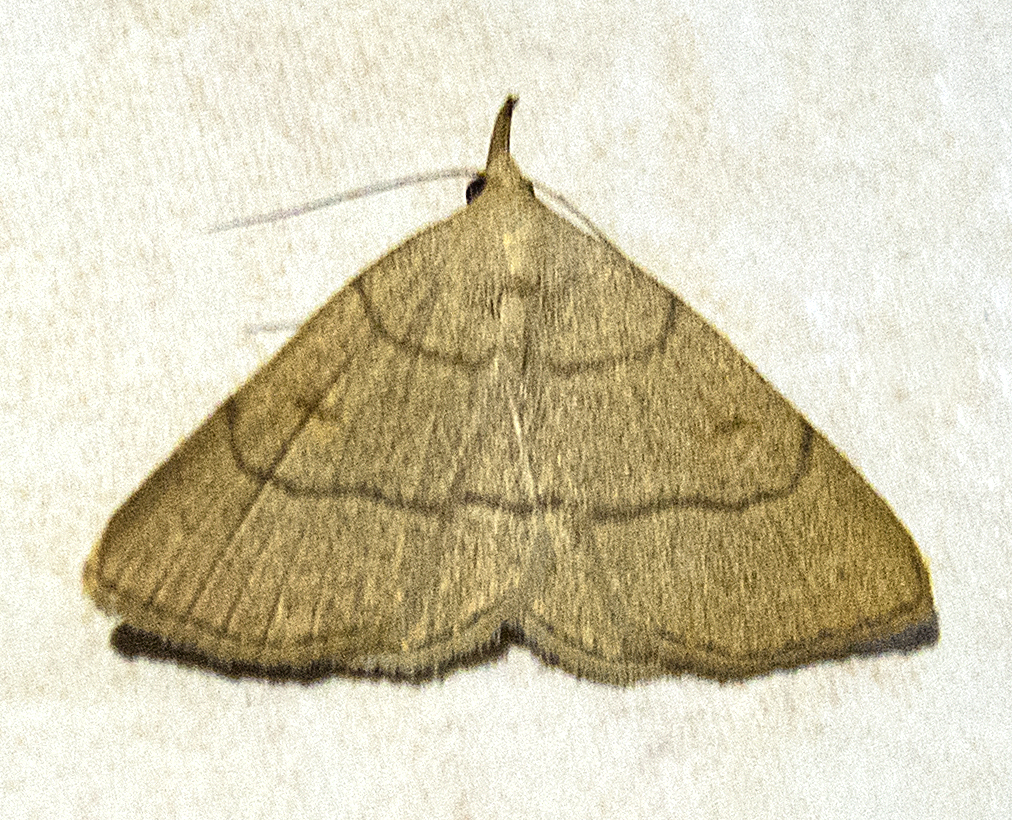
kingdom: Animalia
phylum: Arthropoda
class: Insecta
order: Lepidoptera
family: Erebidae
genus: Paracolax
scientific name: Paracolax tristalis
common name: Clay fan-foot
